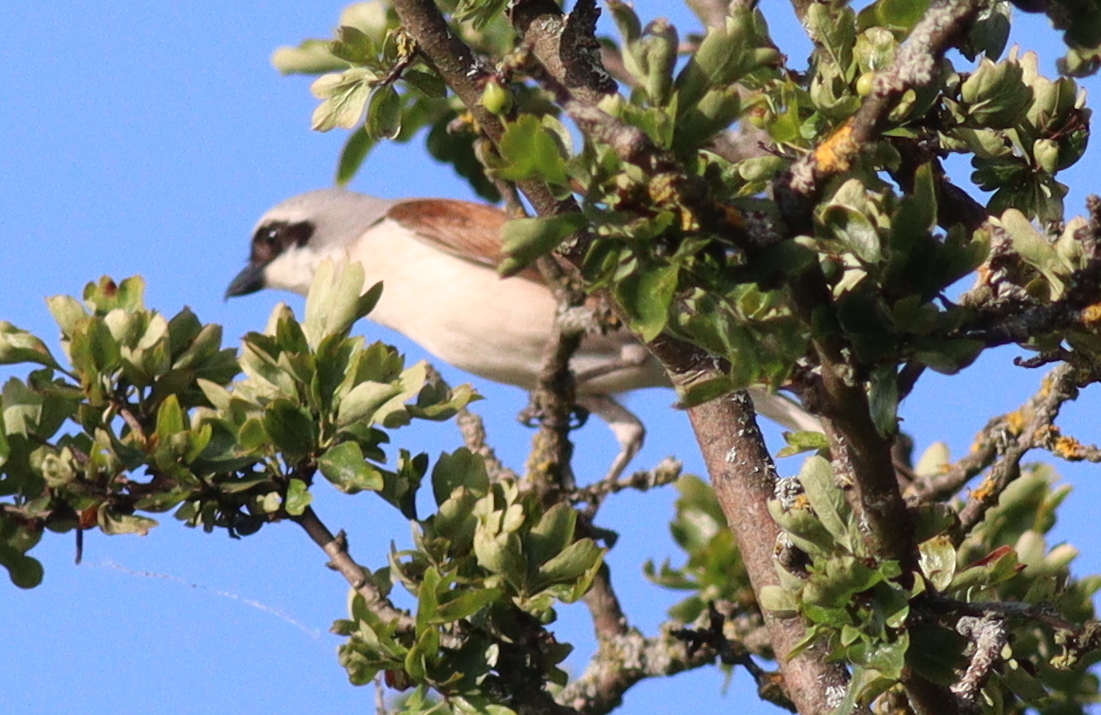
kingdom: Animalia
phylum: Chordata
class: Aves
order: Passeriformes
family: Laniidae
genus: Lanius
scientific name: Lanius collurio
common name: Red-backed shrike
